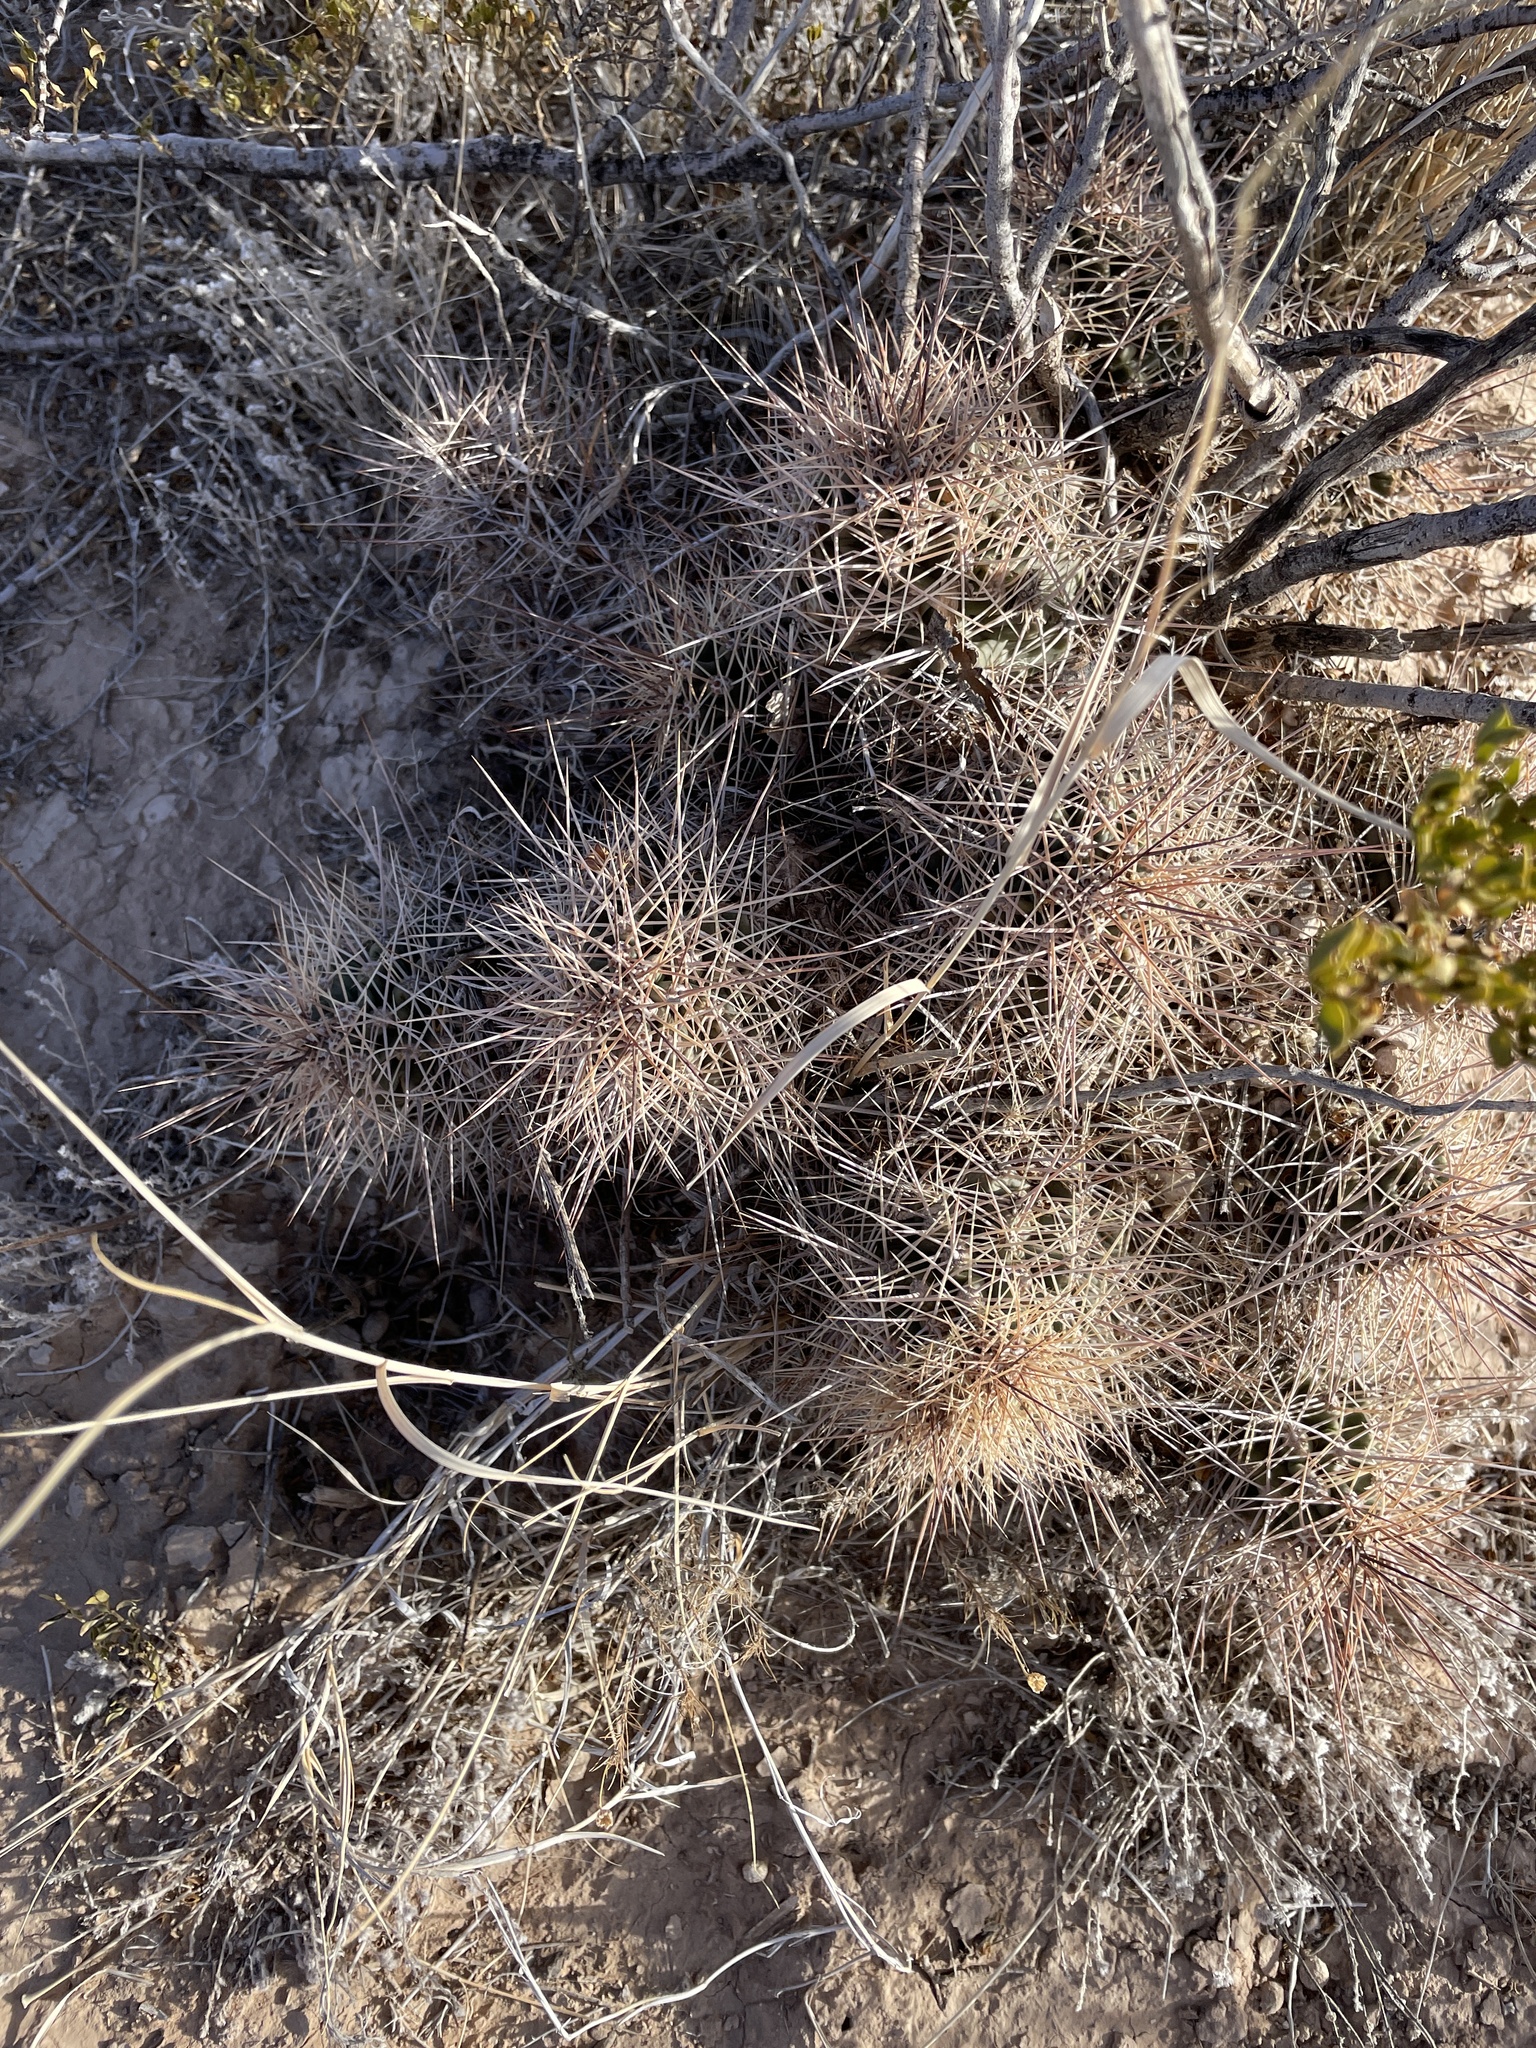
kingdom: Plantae
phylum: Tracheophyta
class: Magnoliopsida
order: Caryophyllales
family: Cactaceae
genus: Echinocereus
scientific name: Echinocereus coccineus
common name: Scarlet hedgehog cactus
